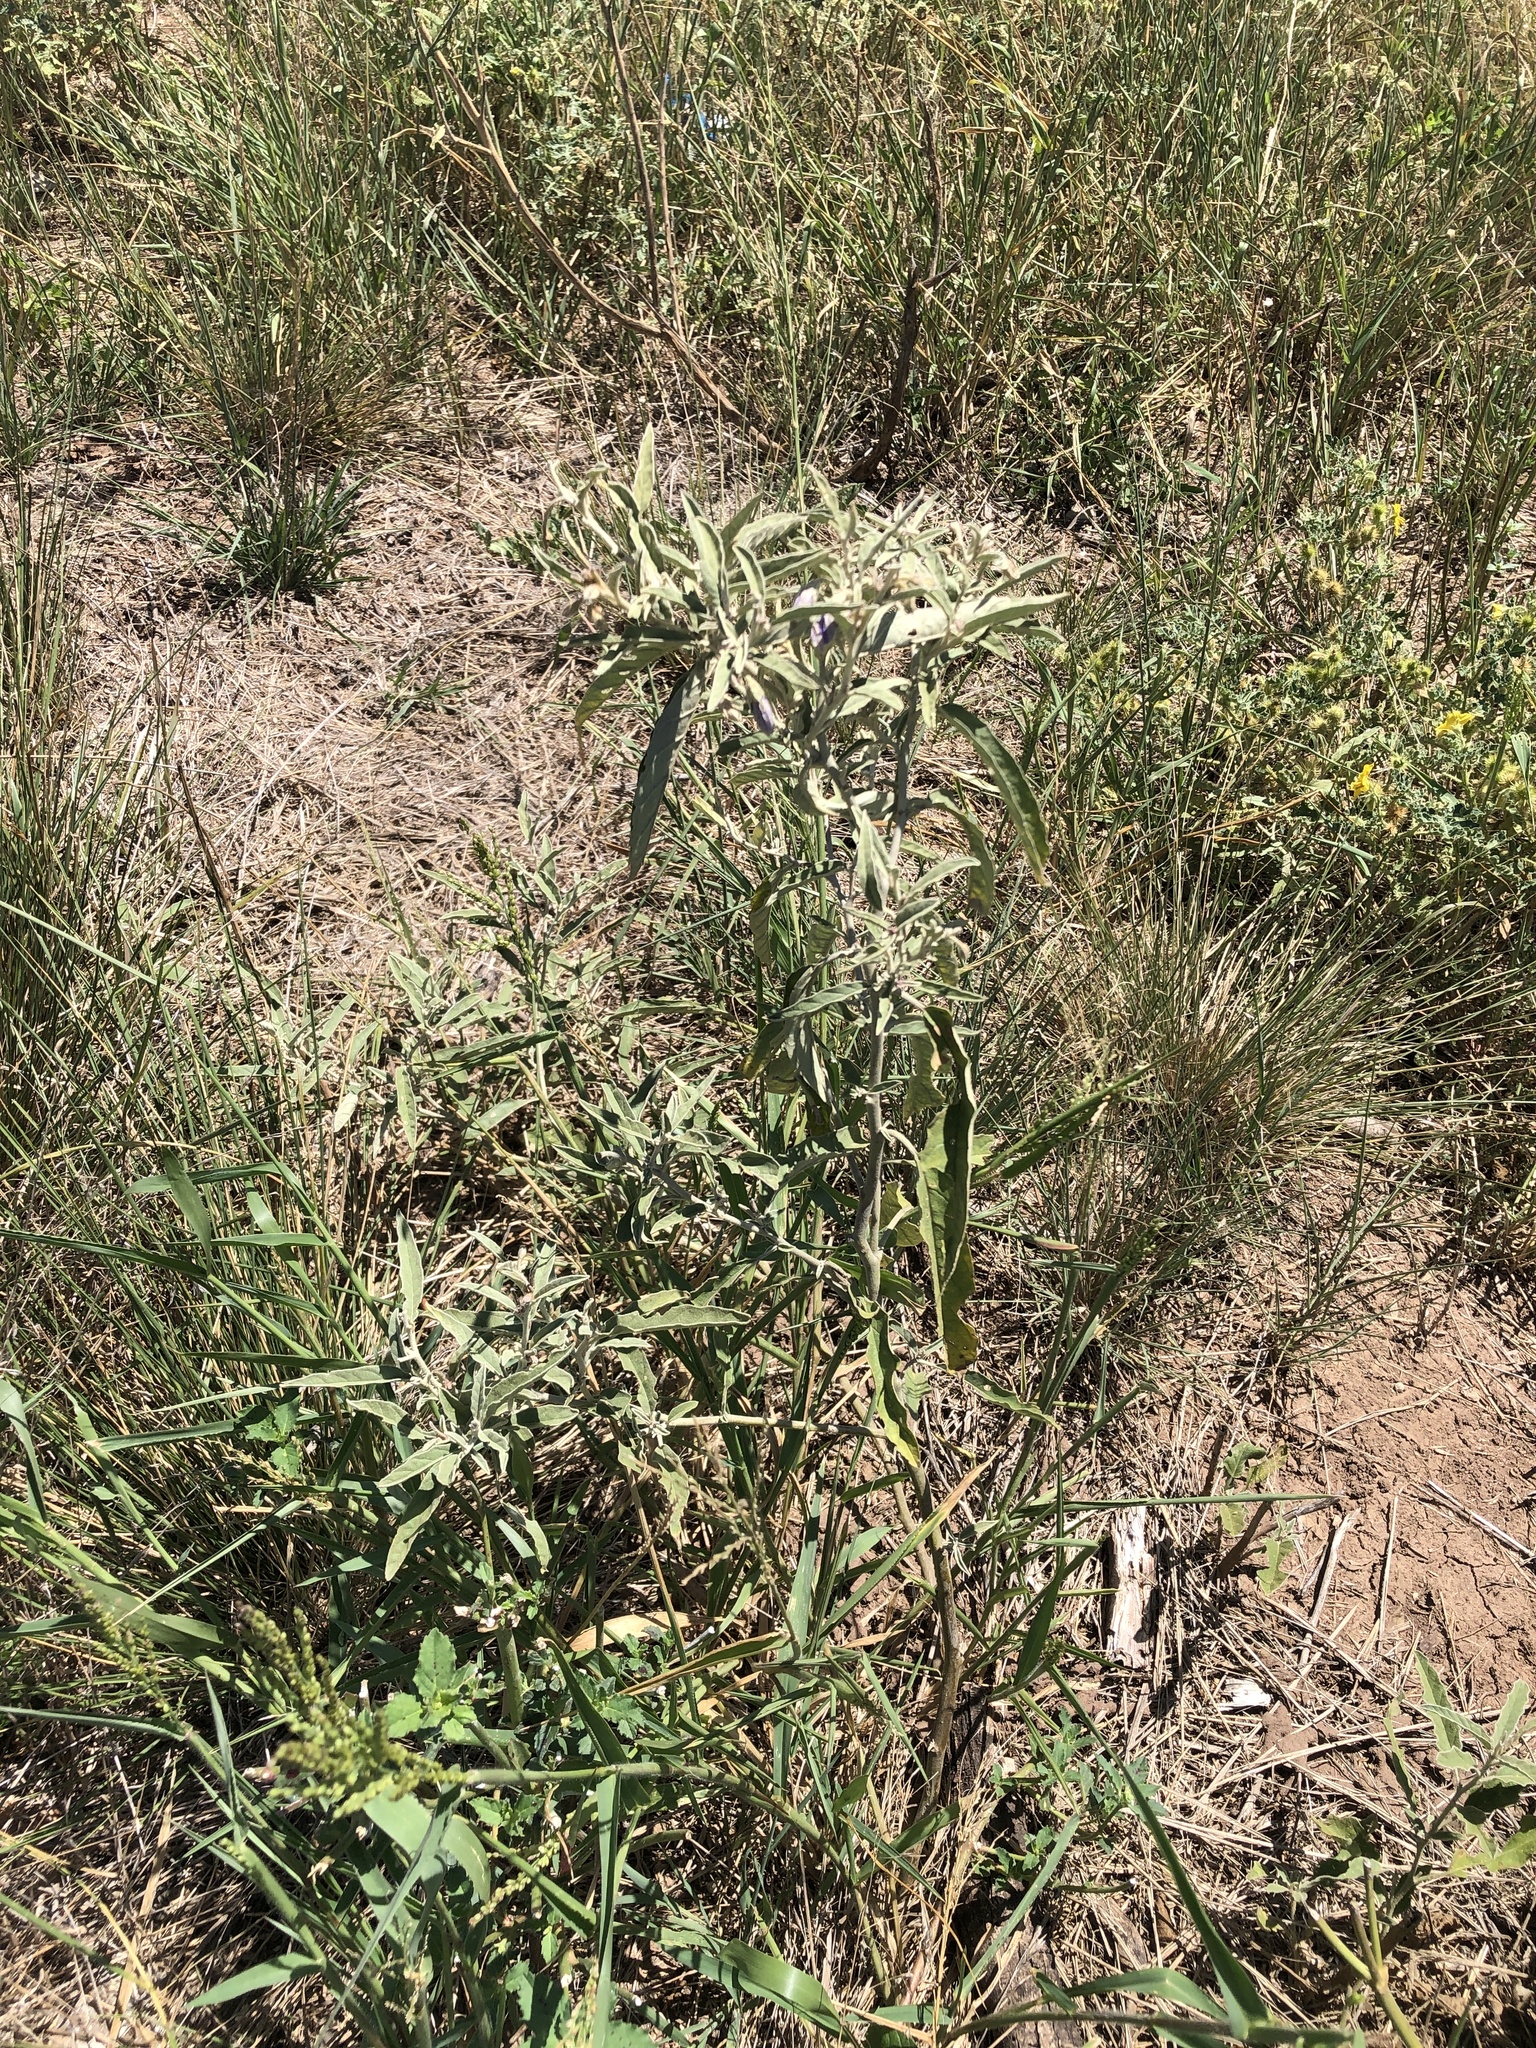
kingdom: Plantae
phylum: Tracheophyta
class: Magnoliopsida
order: Solanales
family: Solanaceae
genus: Solanum
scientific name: Solanum elaeagnifolium
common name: Silverleaf nightshade
